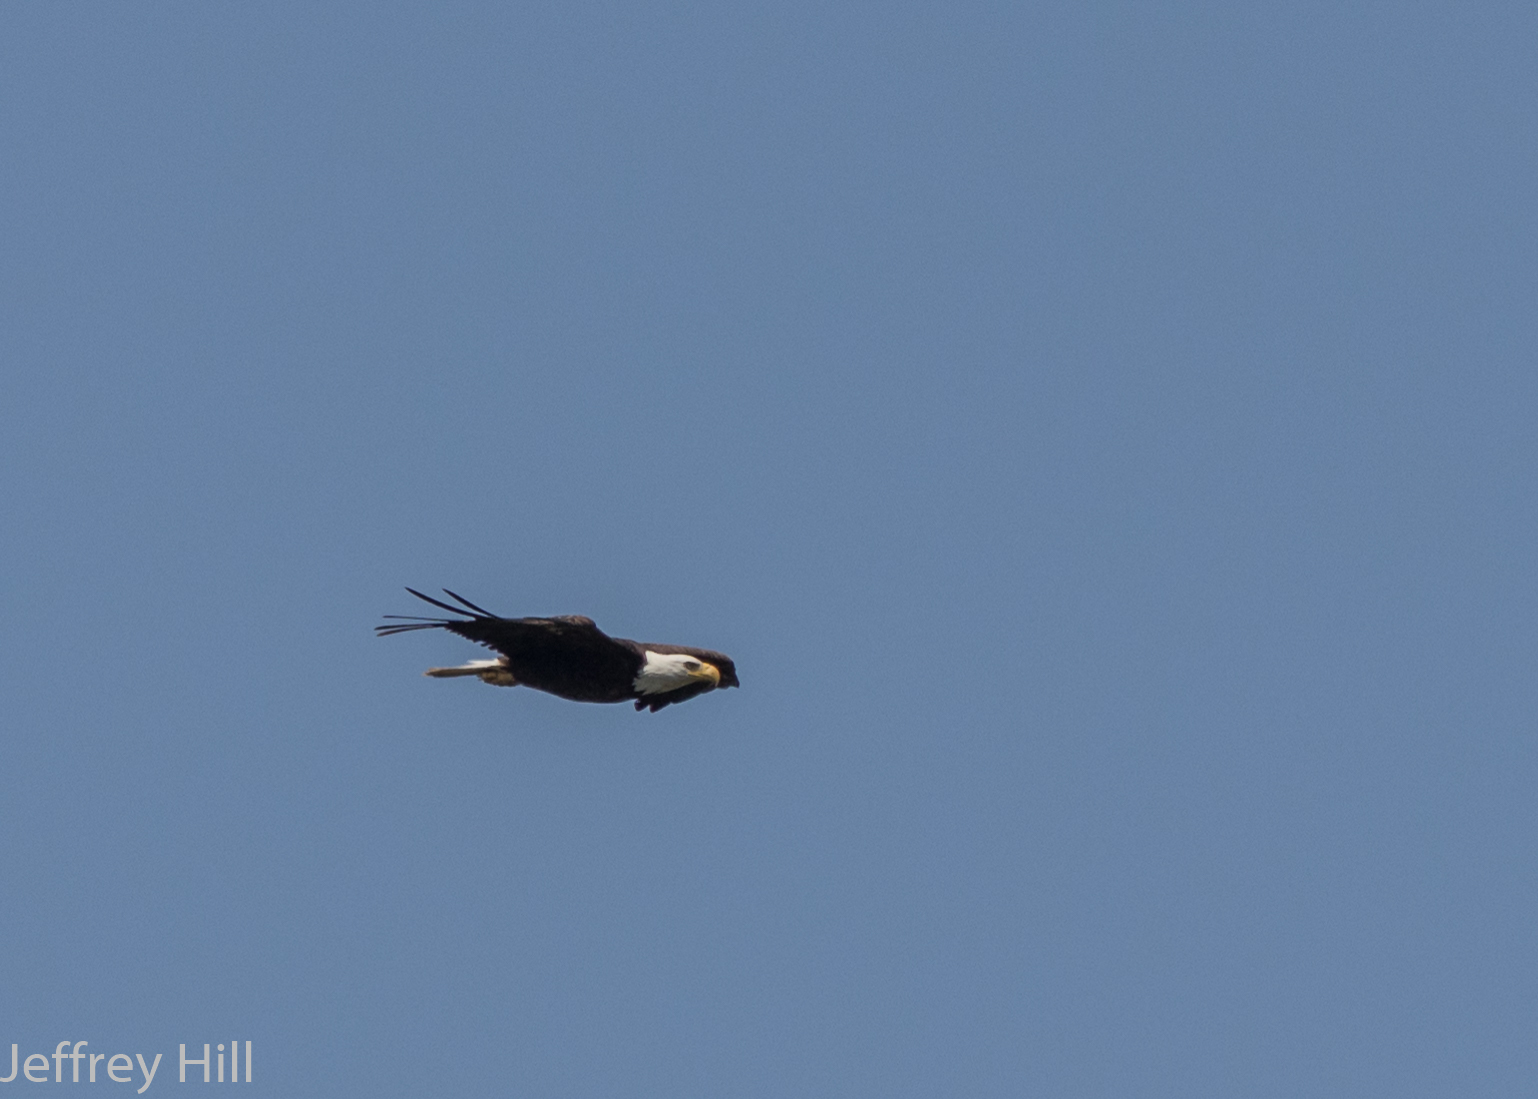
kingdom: Animalia
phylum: Chordata
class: Aves
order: Accipitriformes
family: Accipitridae
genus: Haliaeetus
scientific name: Haliaeetus leucocephalus
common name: Bald eagle
